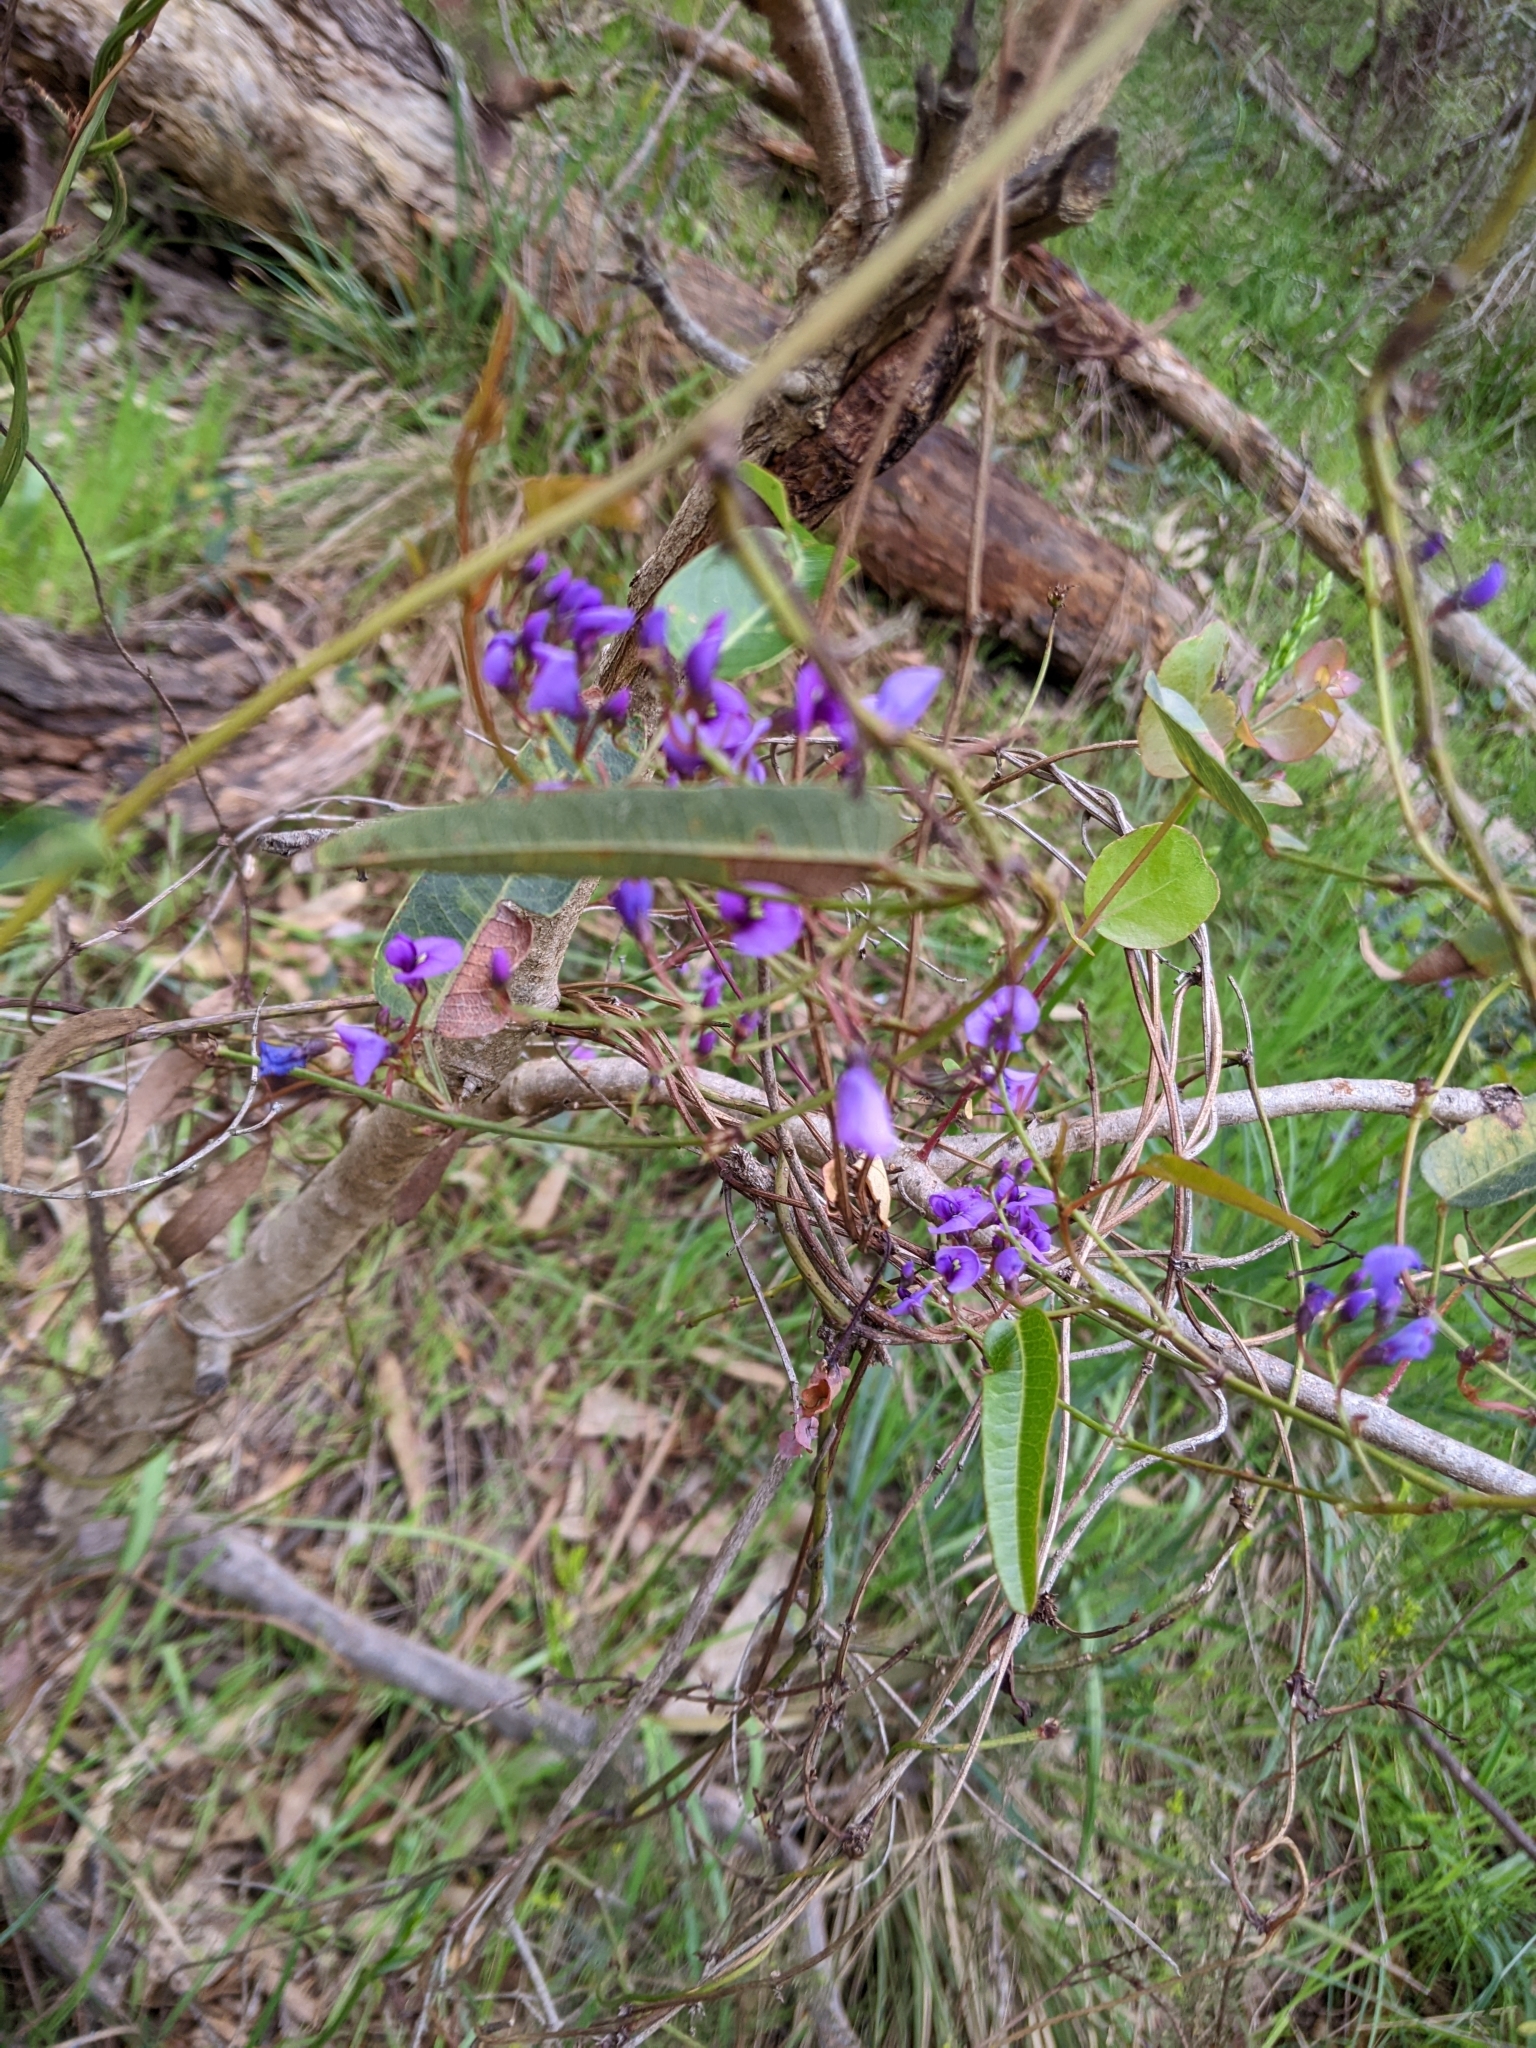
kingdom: Plantae
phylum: Tracheophyta
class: Magnoliopsida
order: Fabales
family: Fabaceae
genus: Hardenbergia
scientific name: Hardenbergia violacea
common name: Coral-pea
